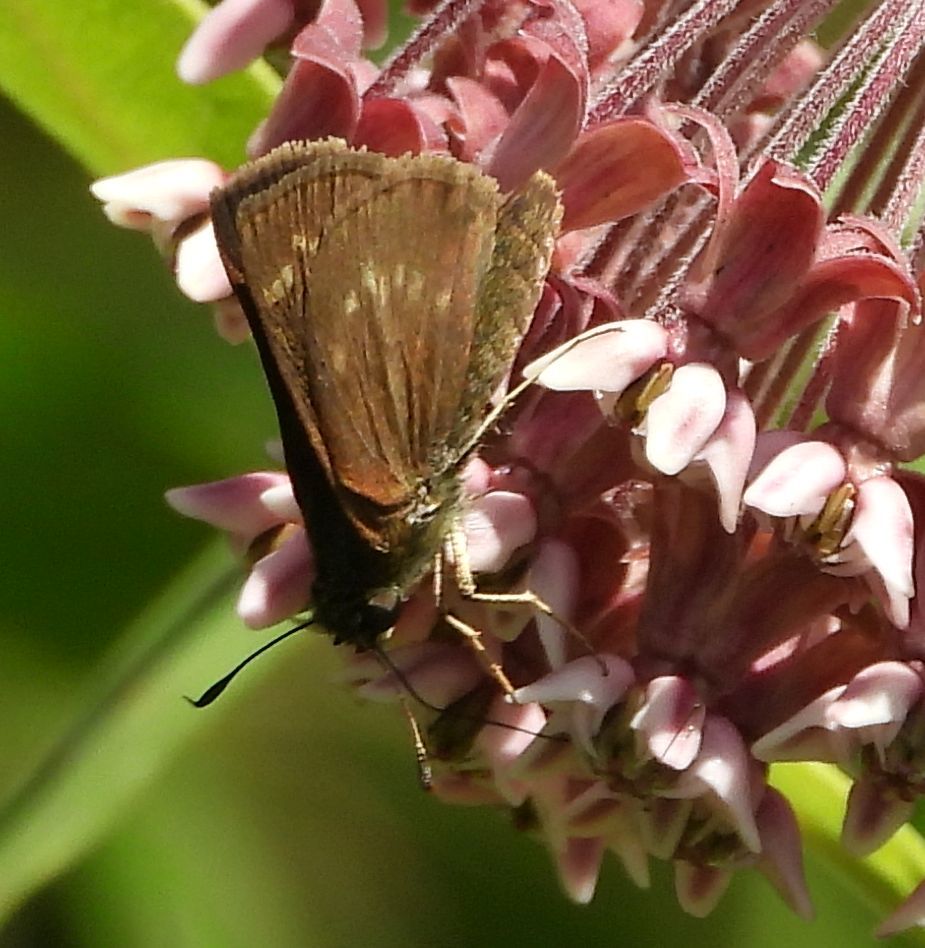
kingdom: Animalia
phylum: Arthropoda
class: Insecta
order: Lepidoptera
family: Hesperiidae
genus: Vernia
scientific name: Vernia verna
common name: Little glassywing
